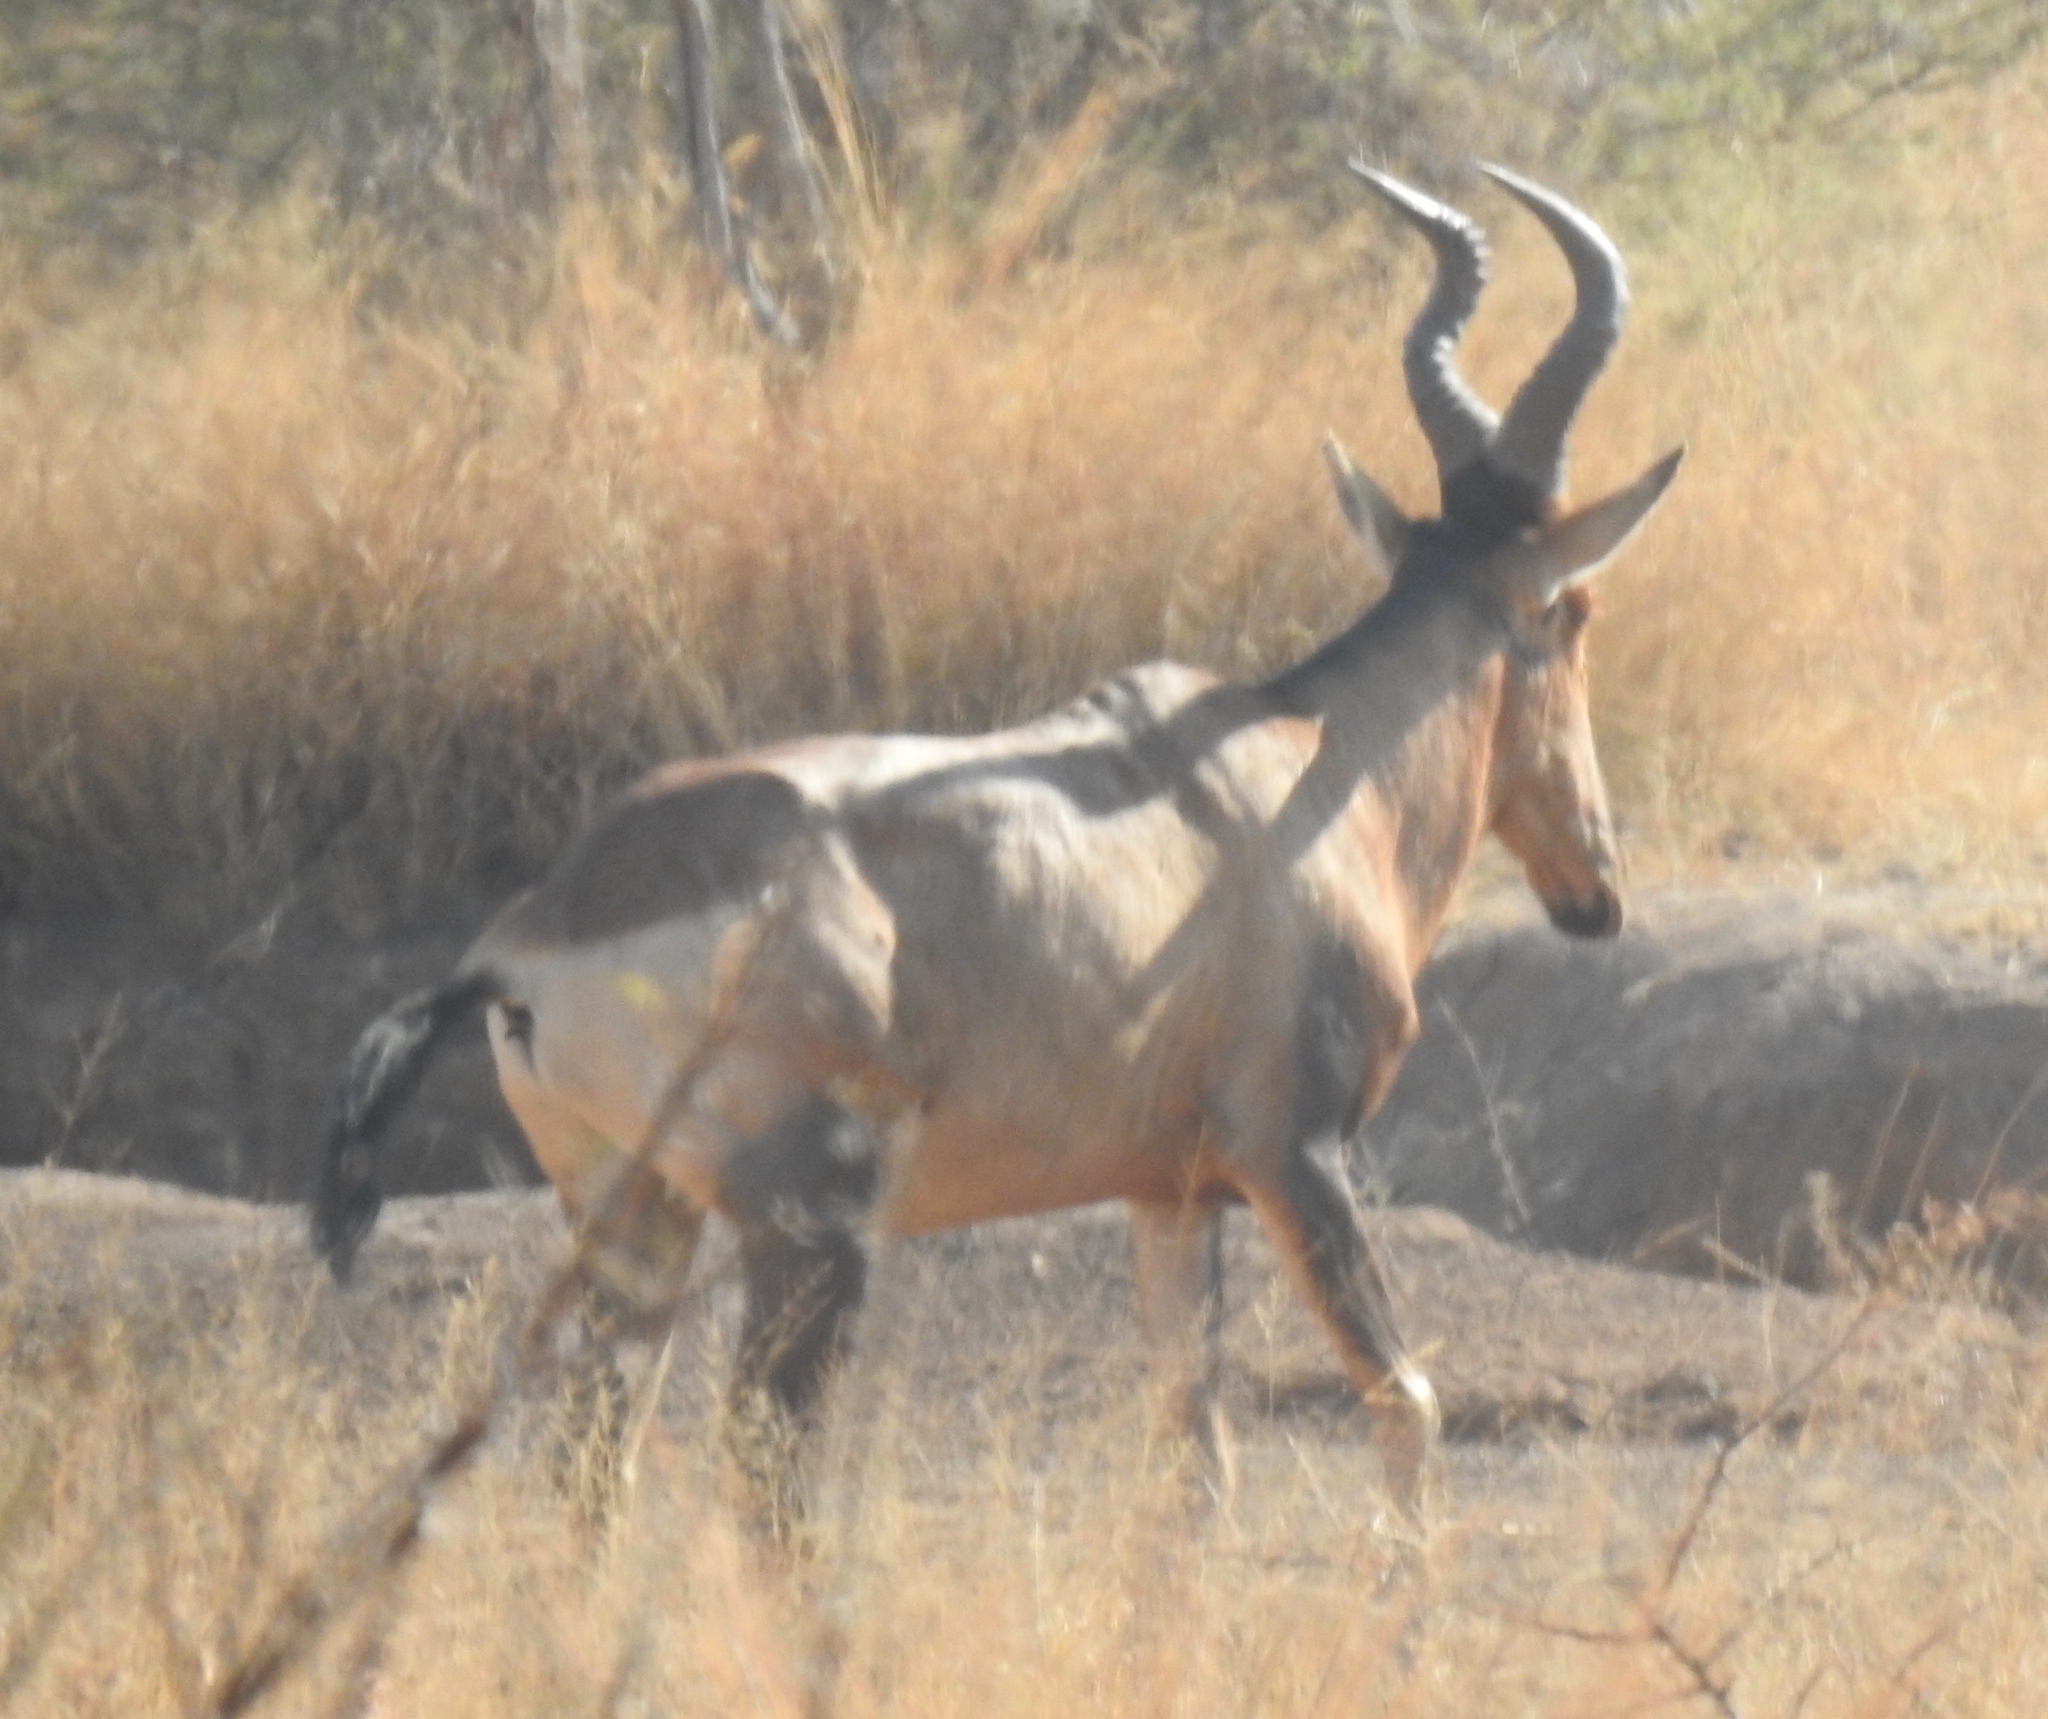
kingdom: Animalia
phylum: Chordata
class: Mammalia
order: Artiodactyla
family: Bovidae
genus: Alcelaphus
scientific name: Alcelaphus caama
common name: Red hartebeest
